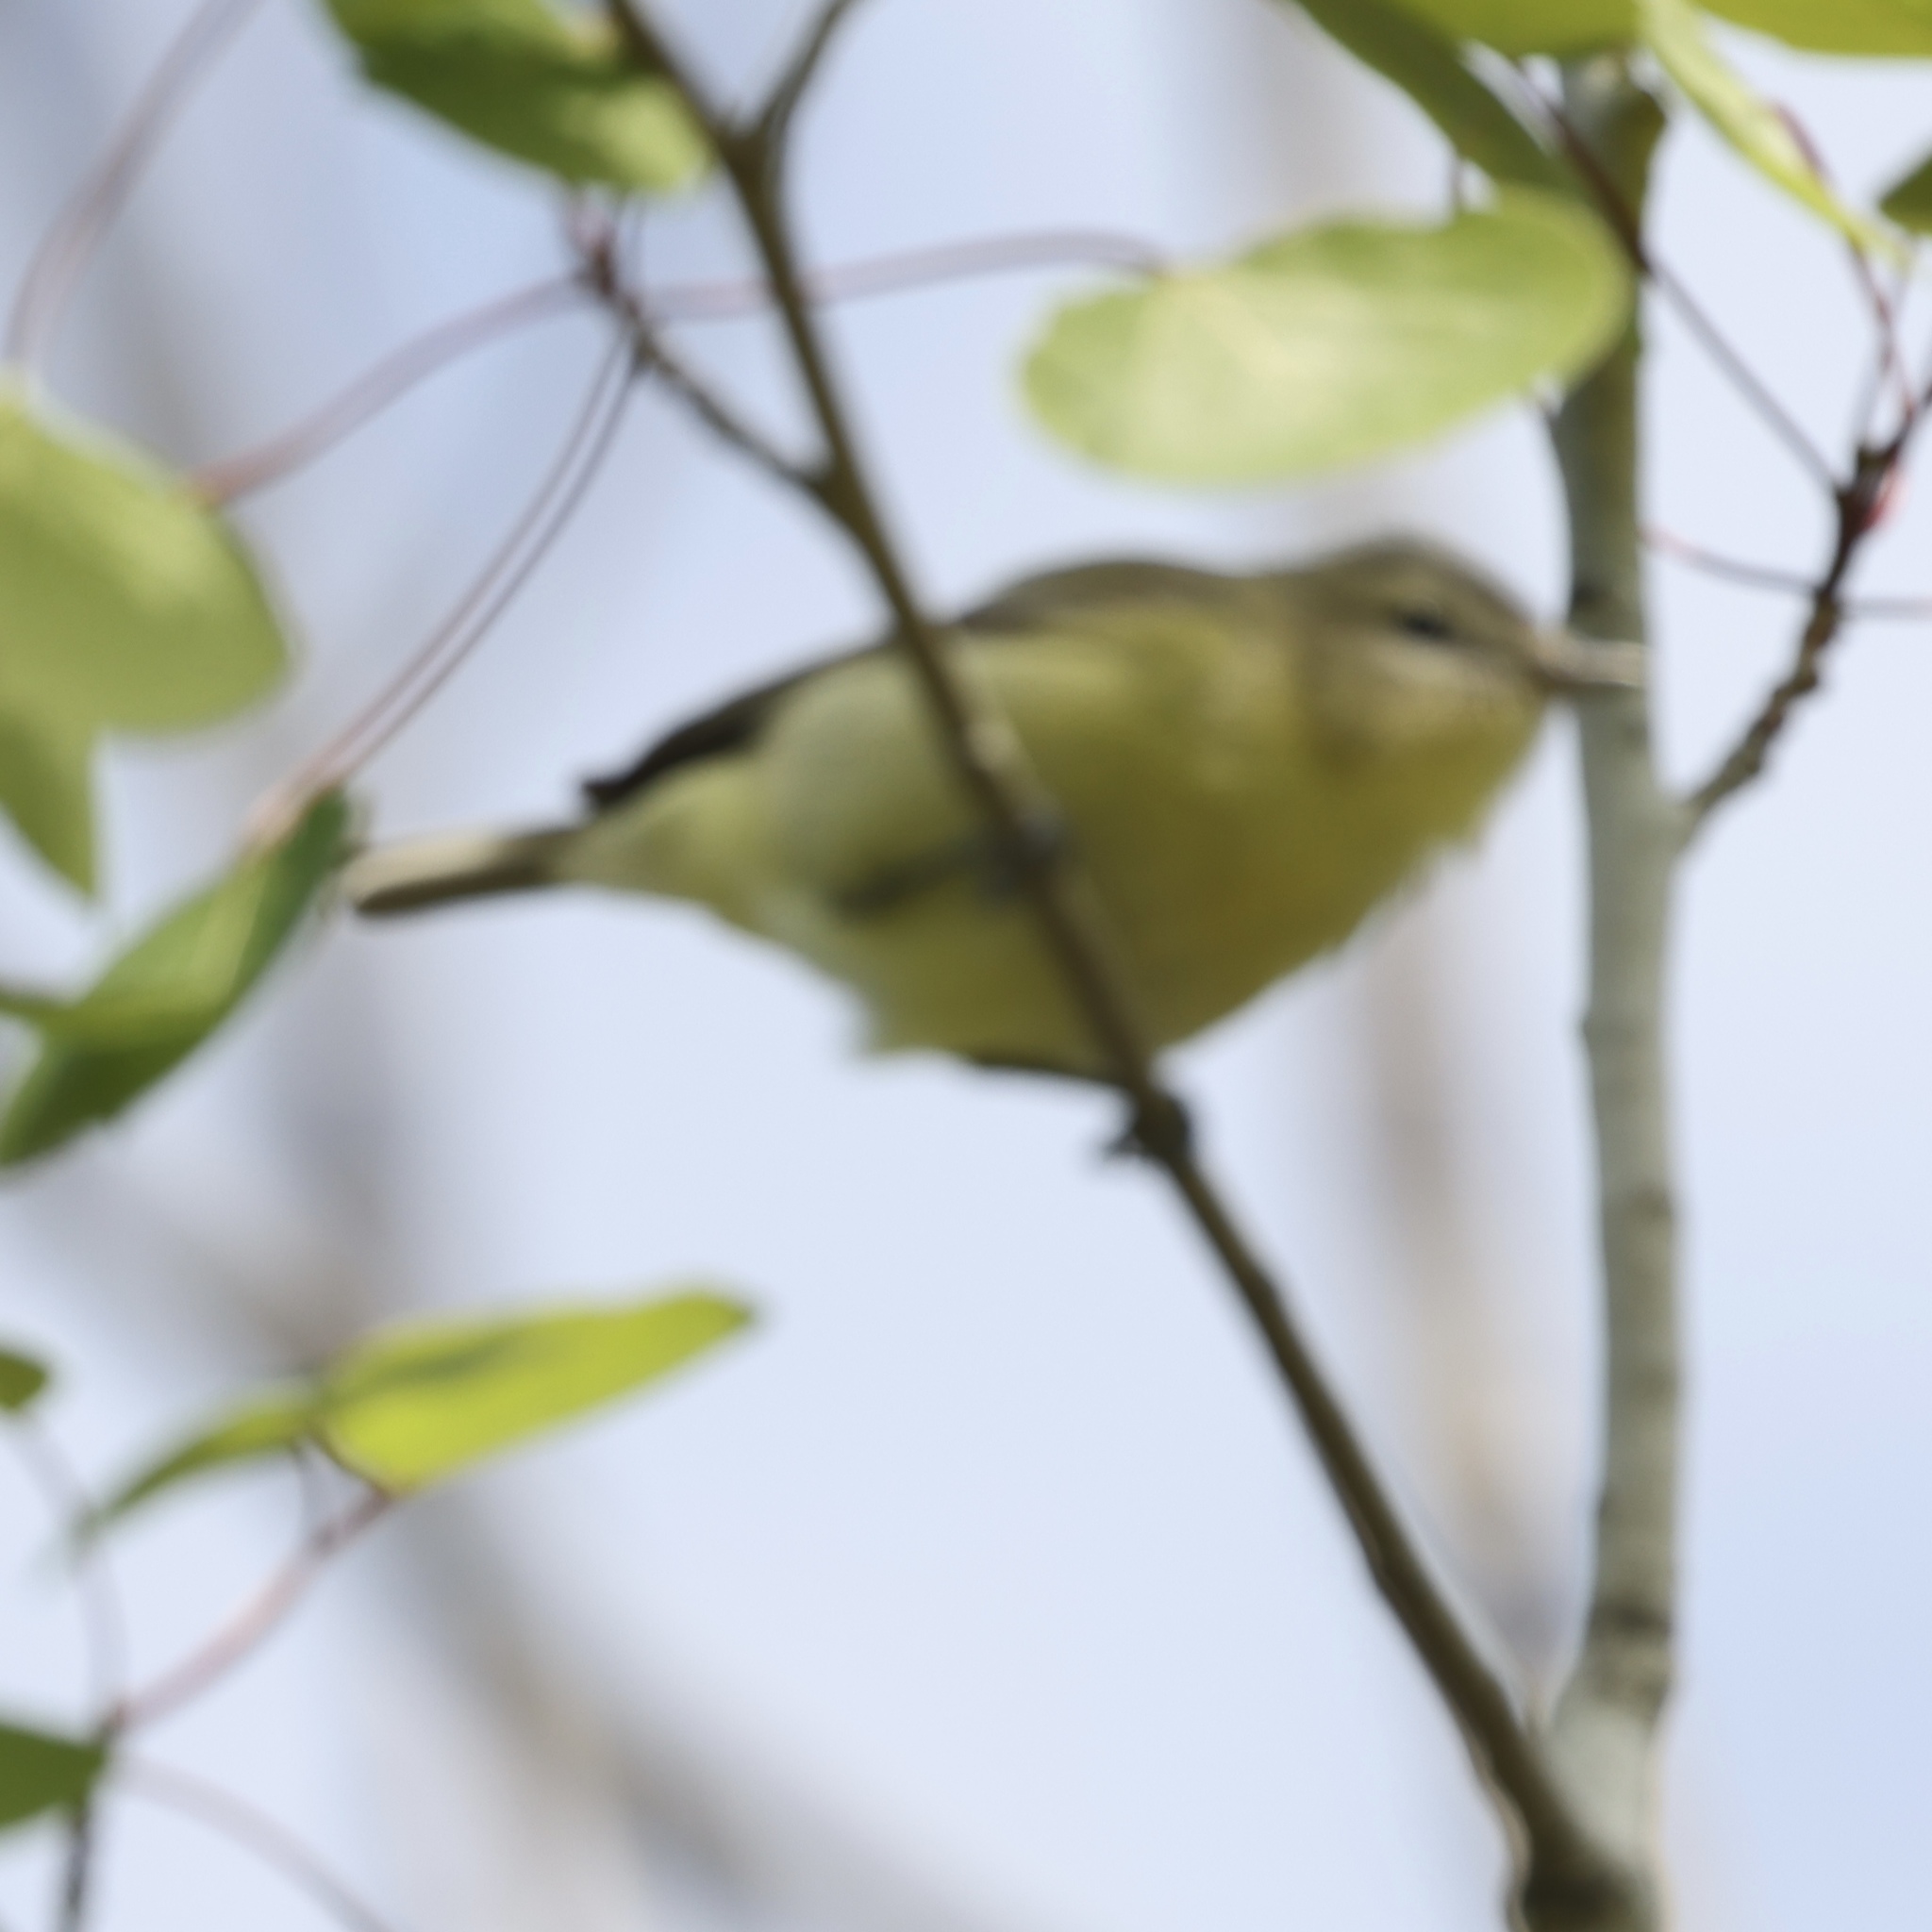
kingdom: Animalia
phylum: Chordata
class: Aves
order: Passeriformes
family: Vireonidae
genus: Vireo
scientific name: Vireo philadelphicus
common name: Philadelphia vireo
